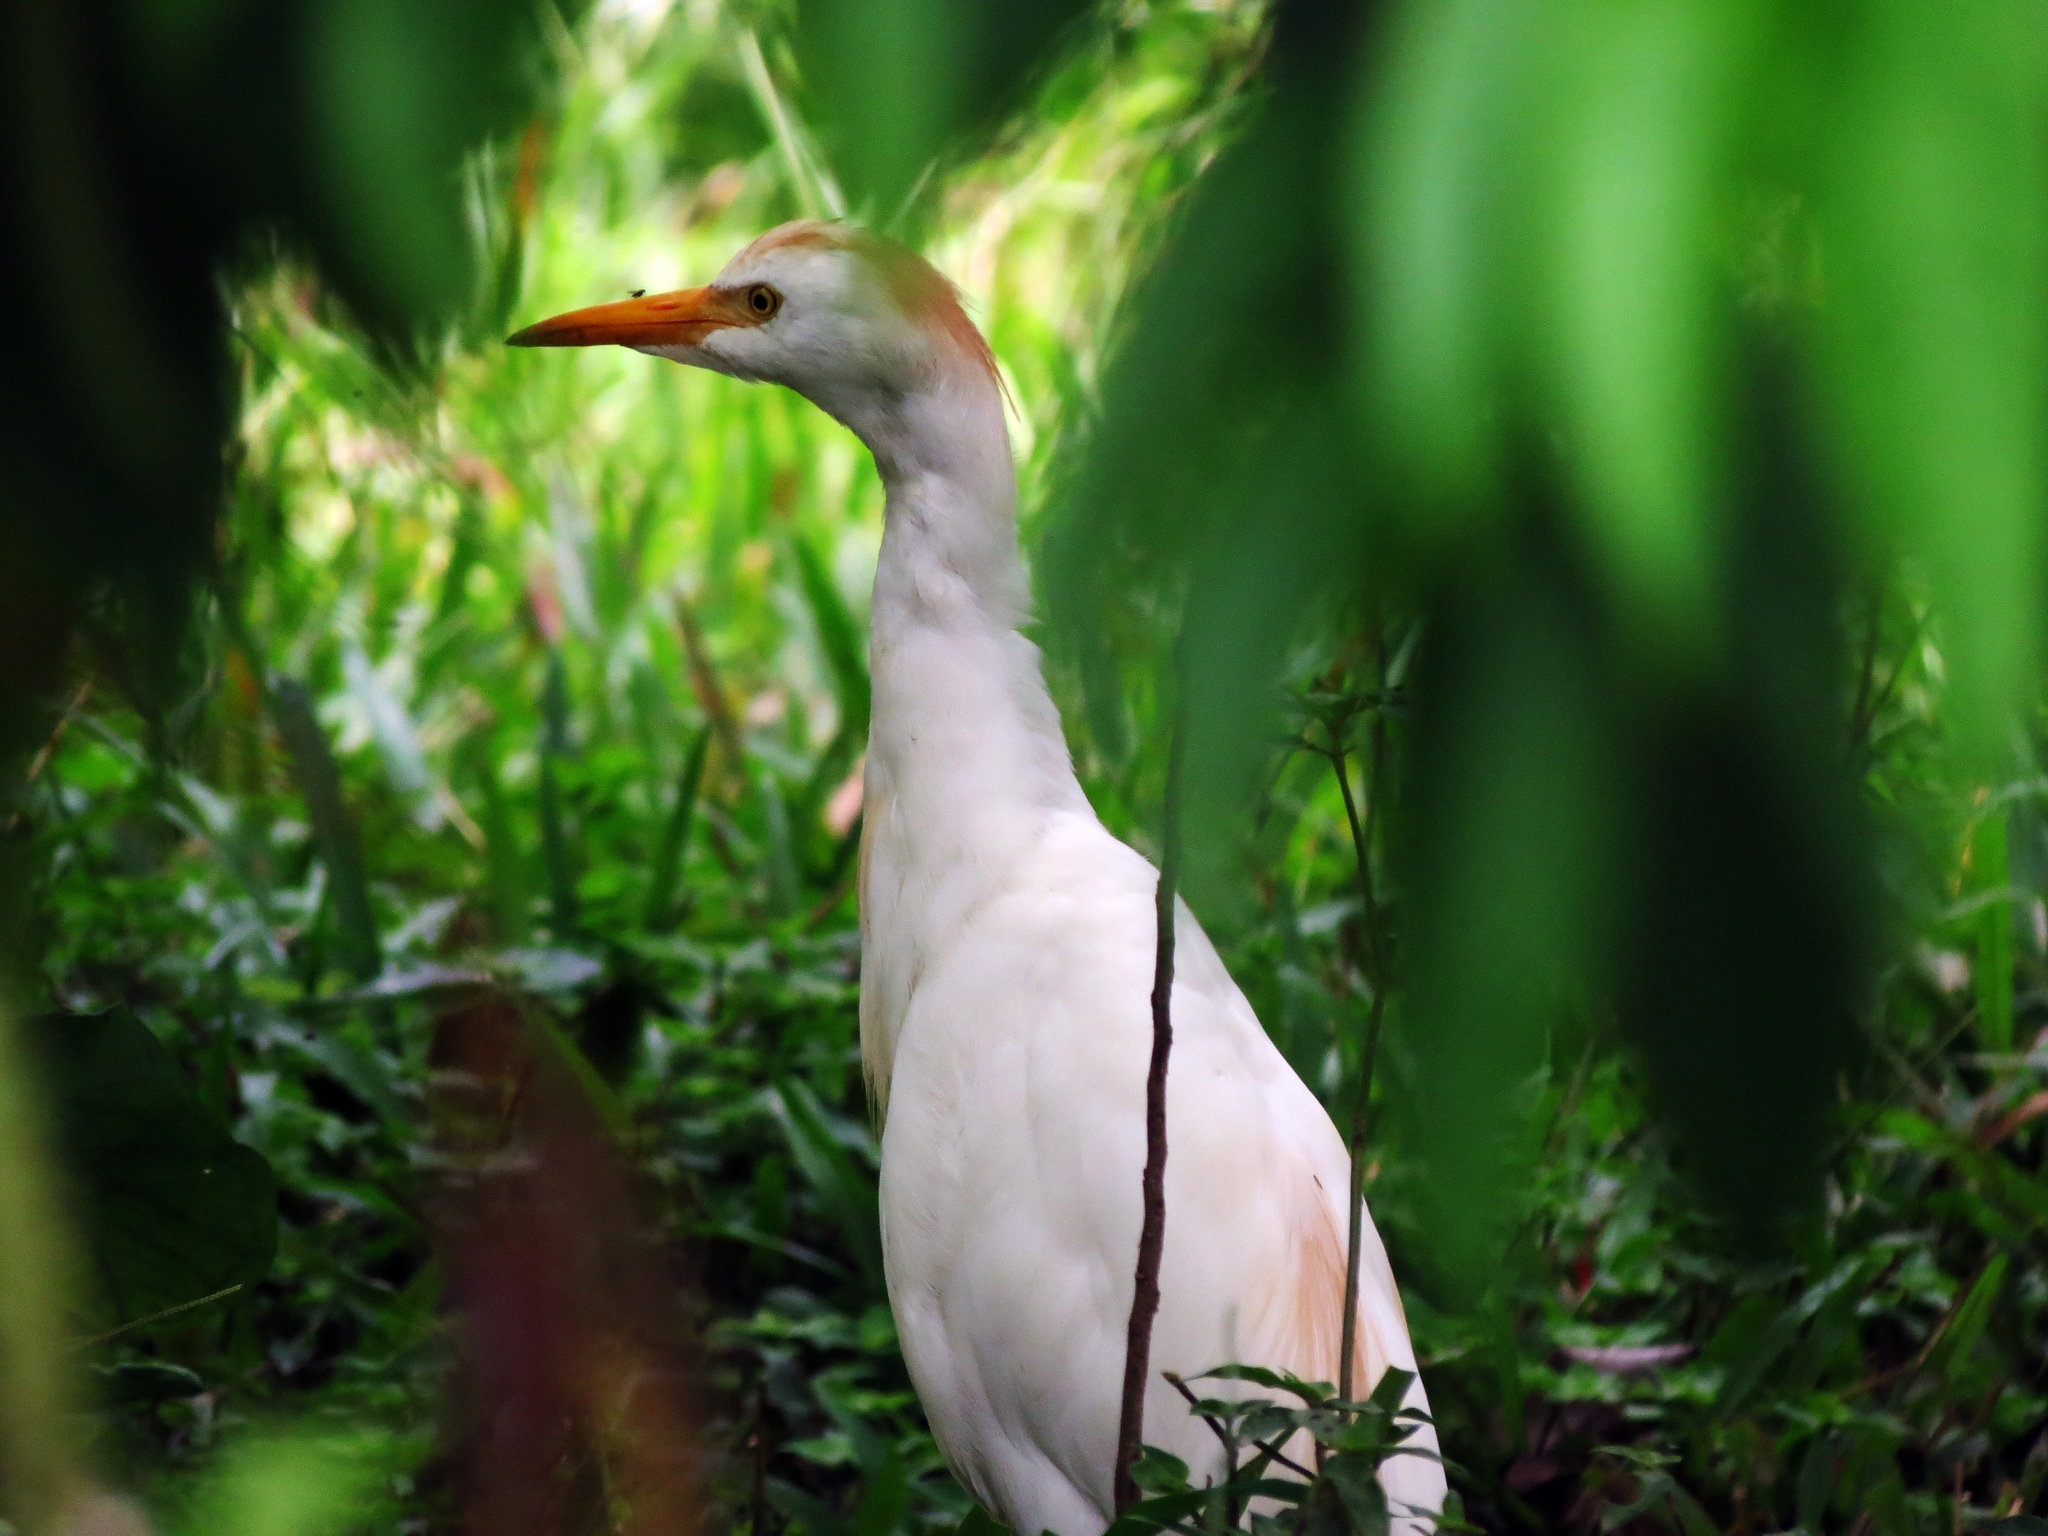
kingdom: Animalia
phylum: Chordata
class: Aves
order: Pelecaniformes
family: Ardeidae
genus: Bubulcus
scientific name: Bubulcus ibis
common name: Cattle egret
